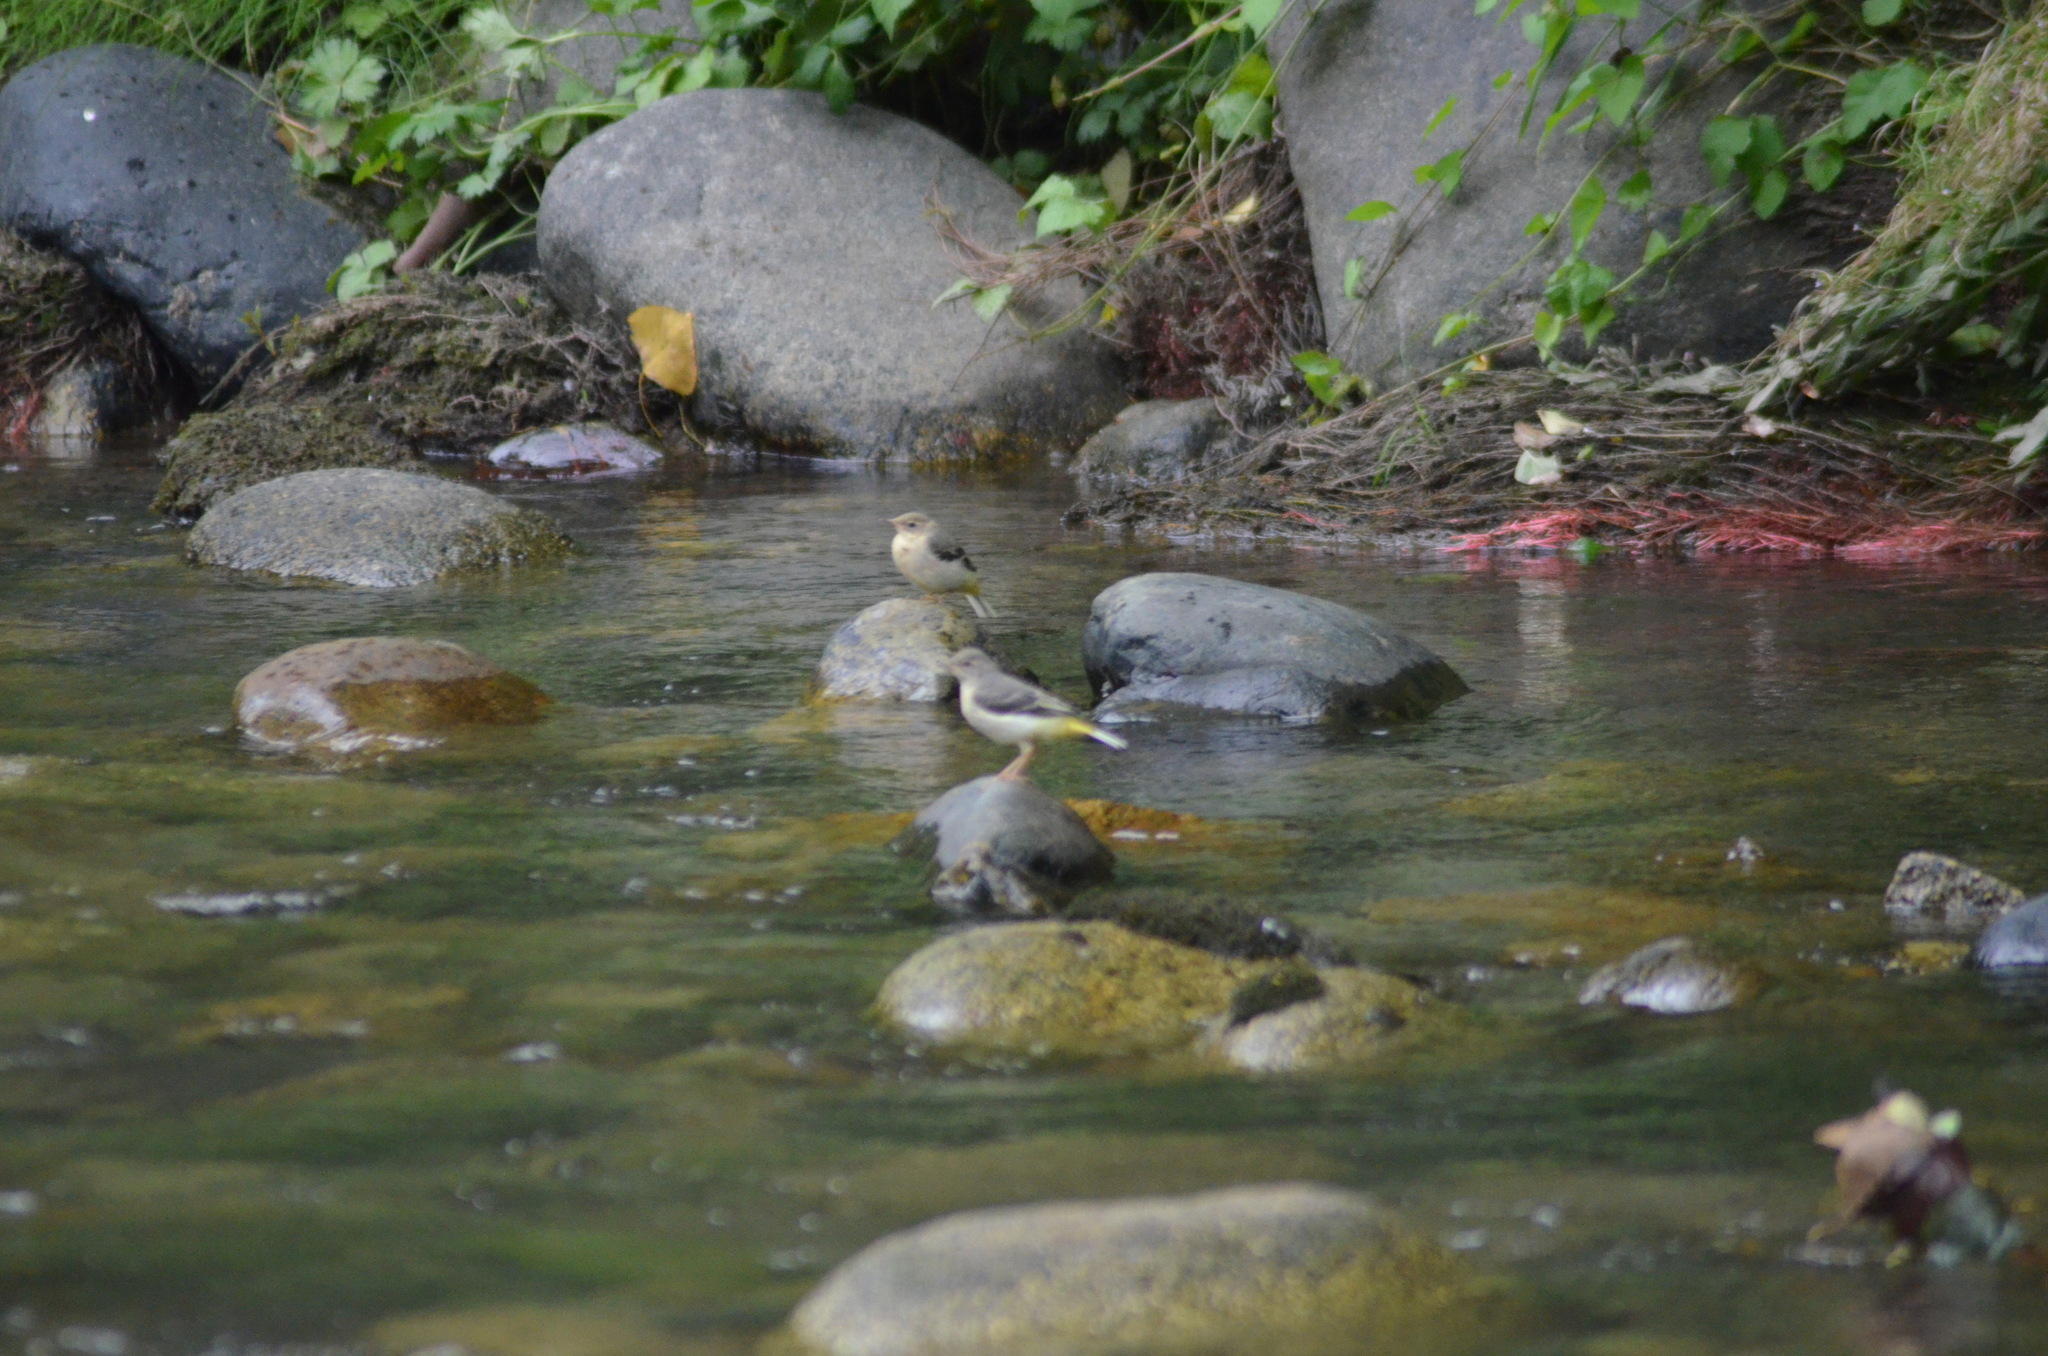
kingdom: Animalia
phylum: Chordata
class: Aves
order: Passeriformes
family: Motacillidae
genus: Motacilla
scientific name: Motacilla cinerea
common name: Grey wagtail
